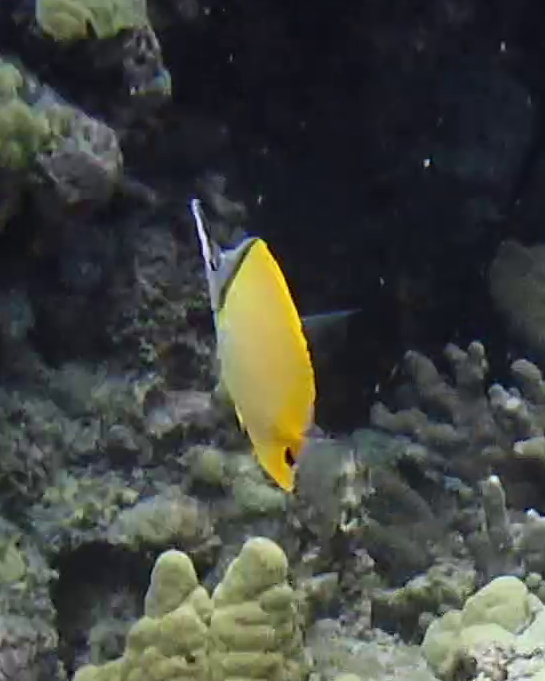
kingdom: Animalia
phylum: Chordata
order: Perciformes
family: Chaetodontidae
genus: Forcipiger
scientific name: Forcipiger flavissimus
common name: Forcepsfish
